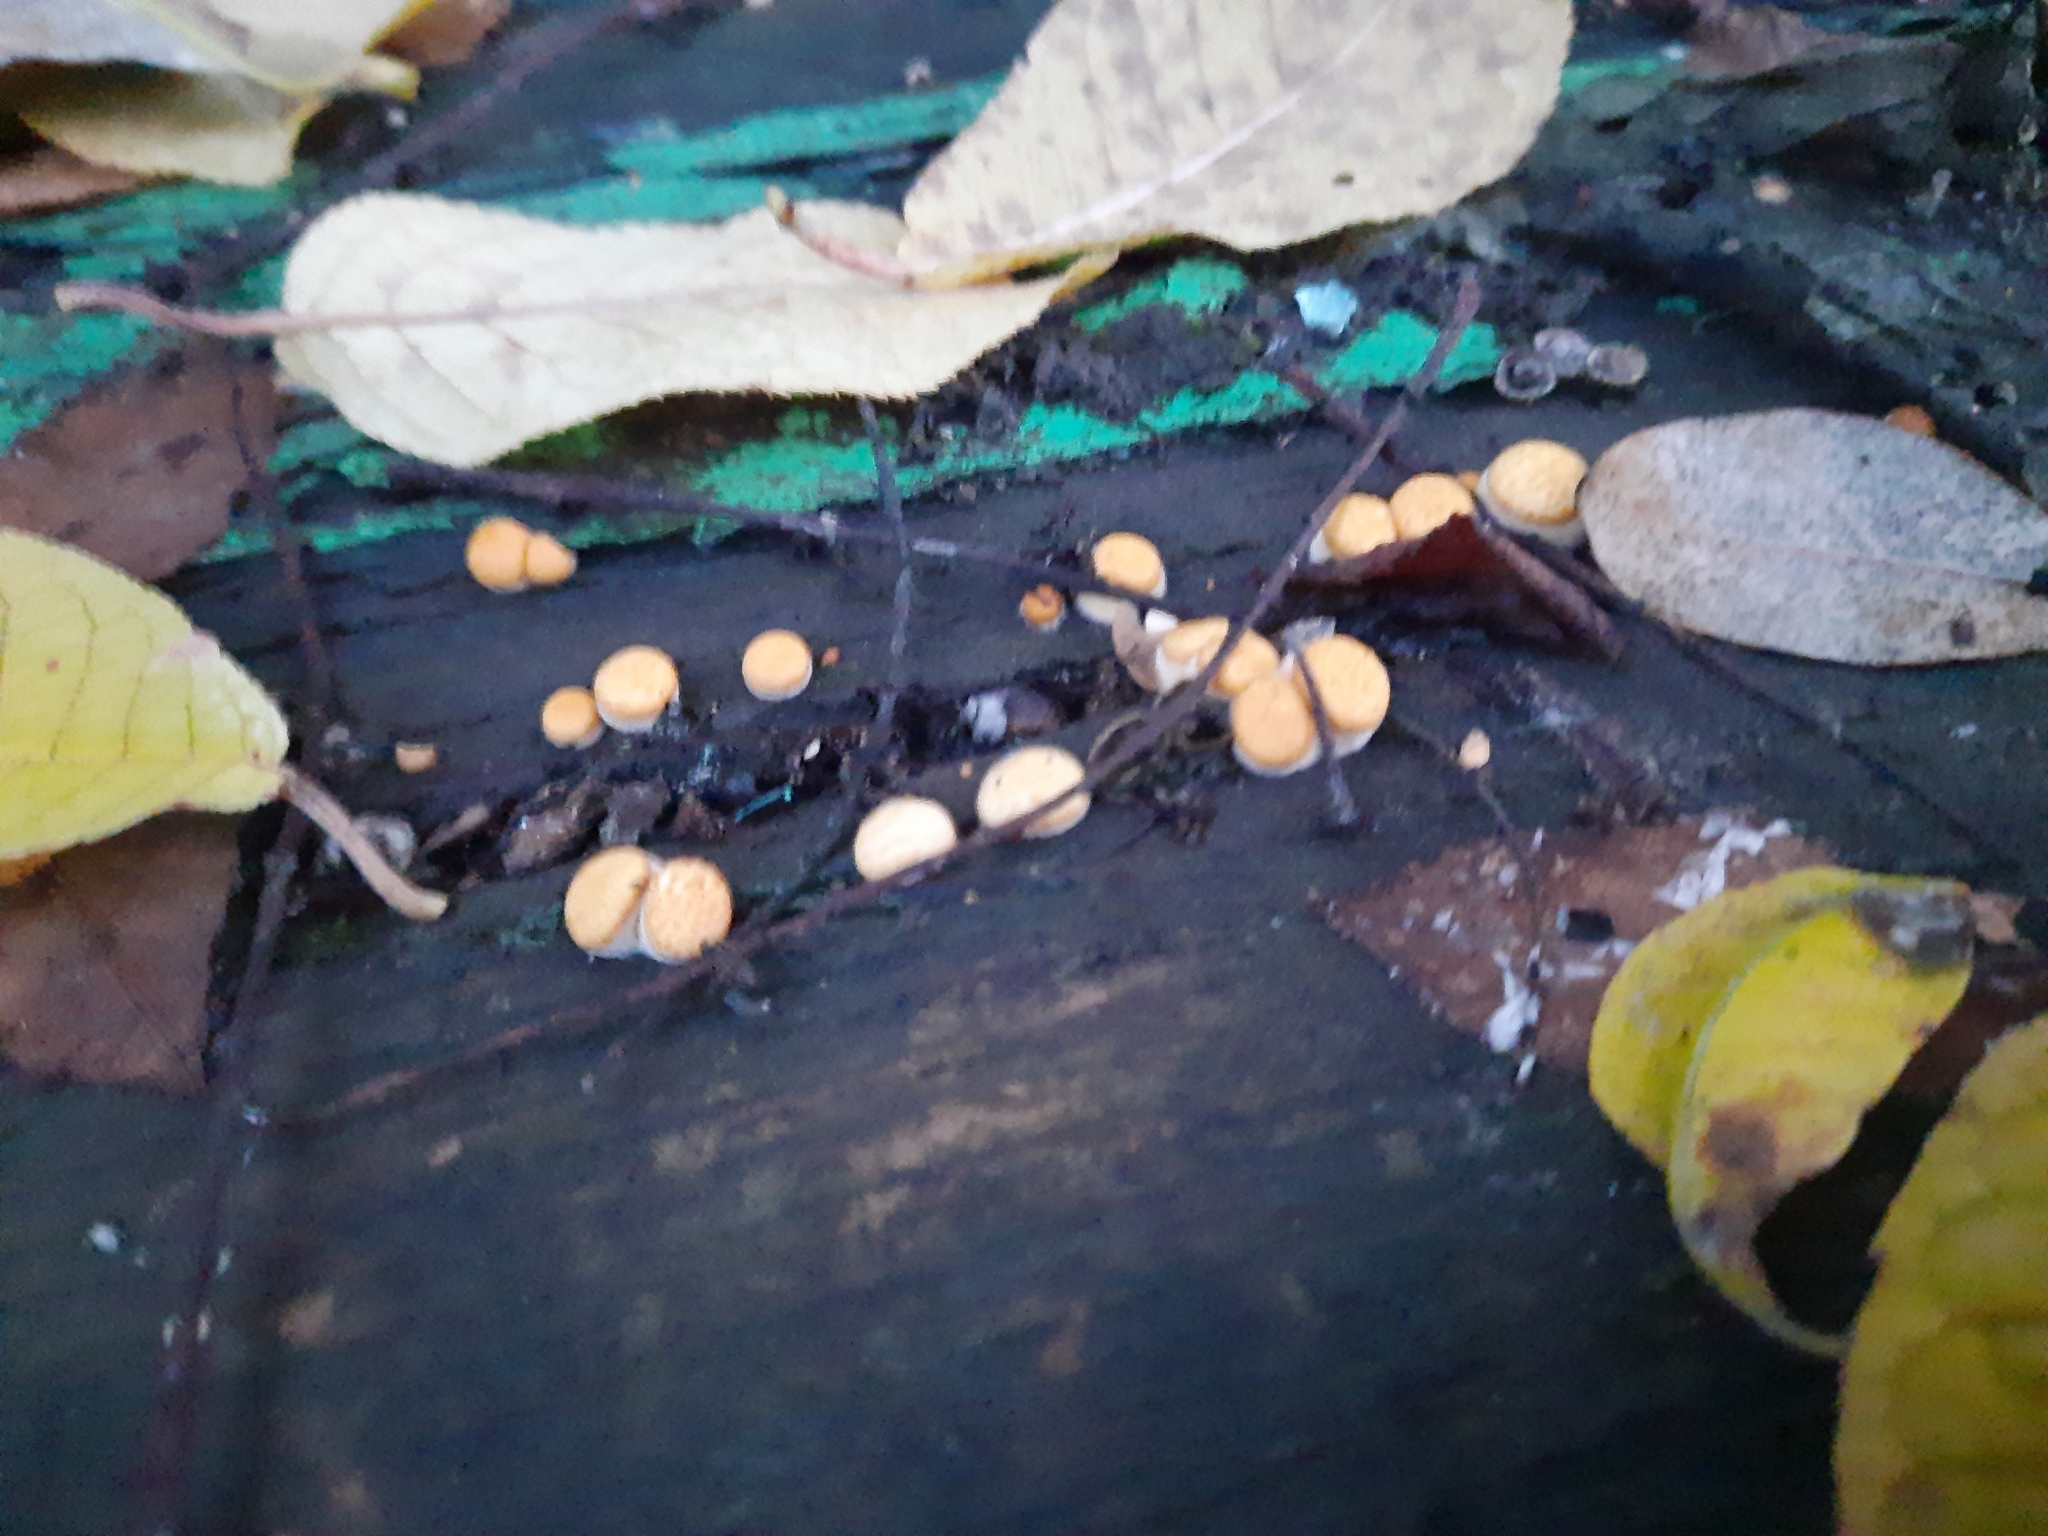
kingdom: Fungi
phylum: Basidiomycota
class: Agaricomycetes
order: Agaricales
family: Nidulariaceae
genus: Crucibulum
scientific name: Crucibulum laeve
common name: Common bird's nest
